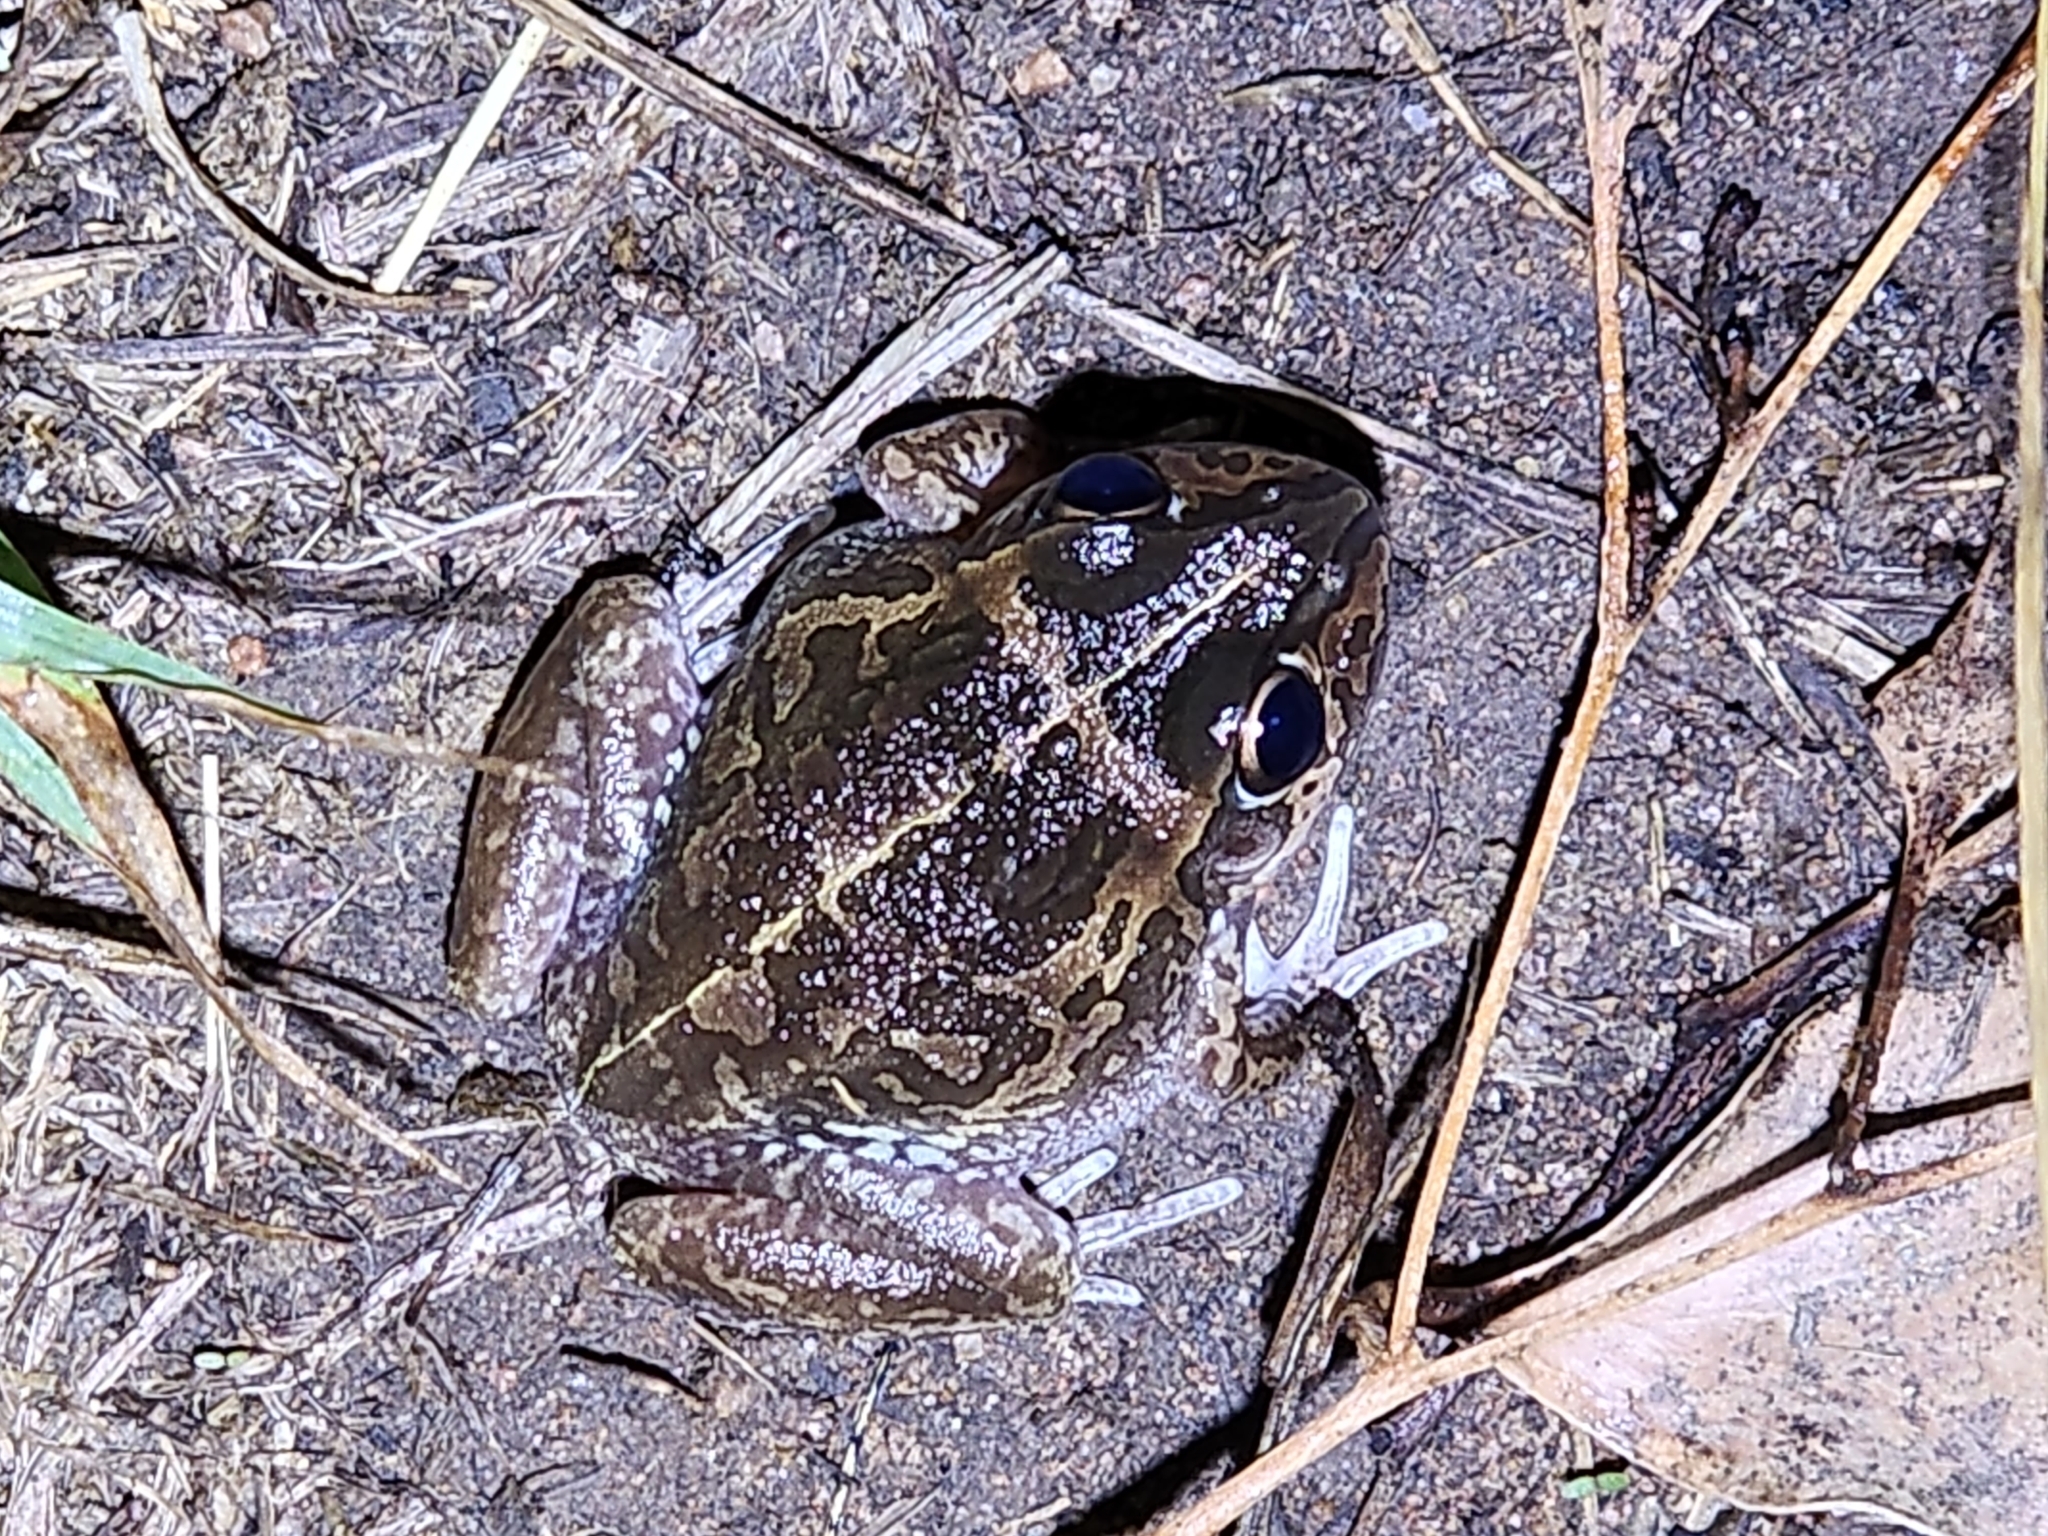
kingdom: Animalia
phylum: Chordata
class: Amphibia
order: Anura
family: Pelodryadidae
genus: Ranoidea
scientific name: Ranoidea brevipes
